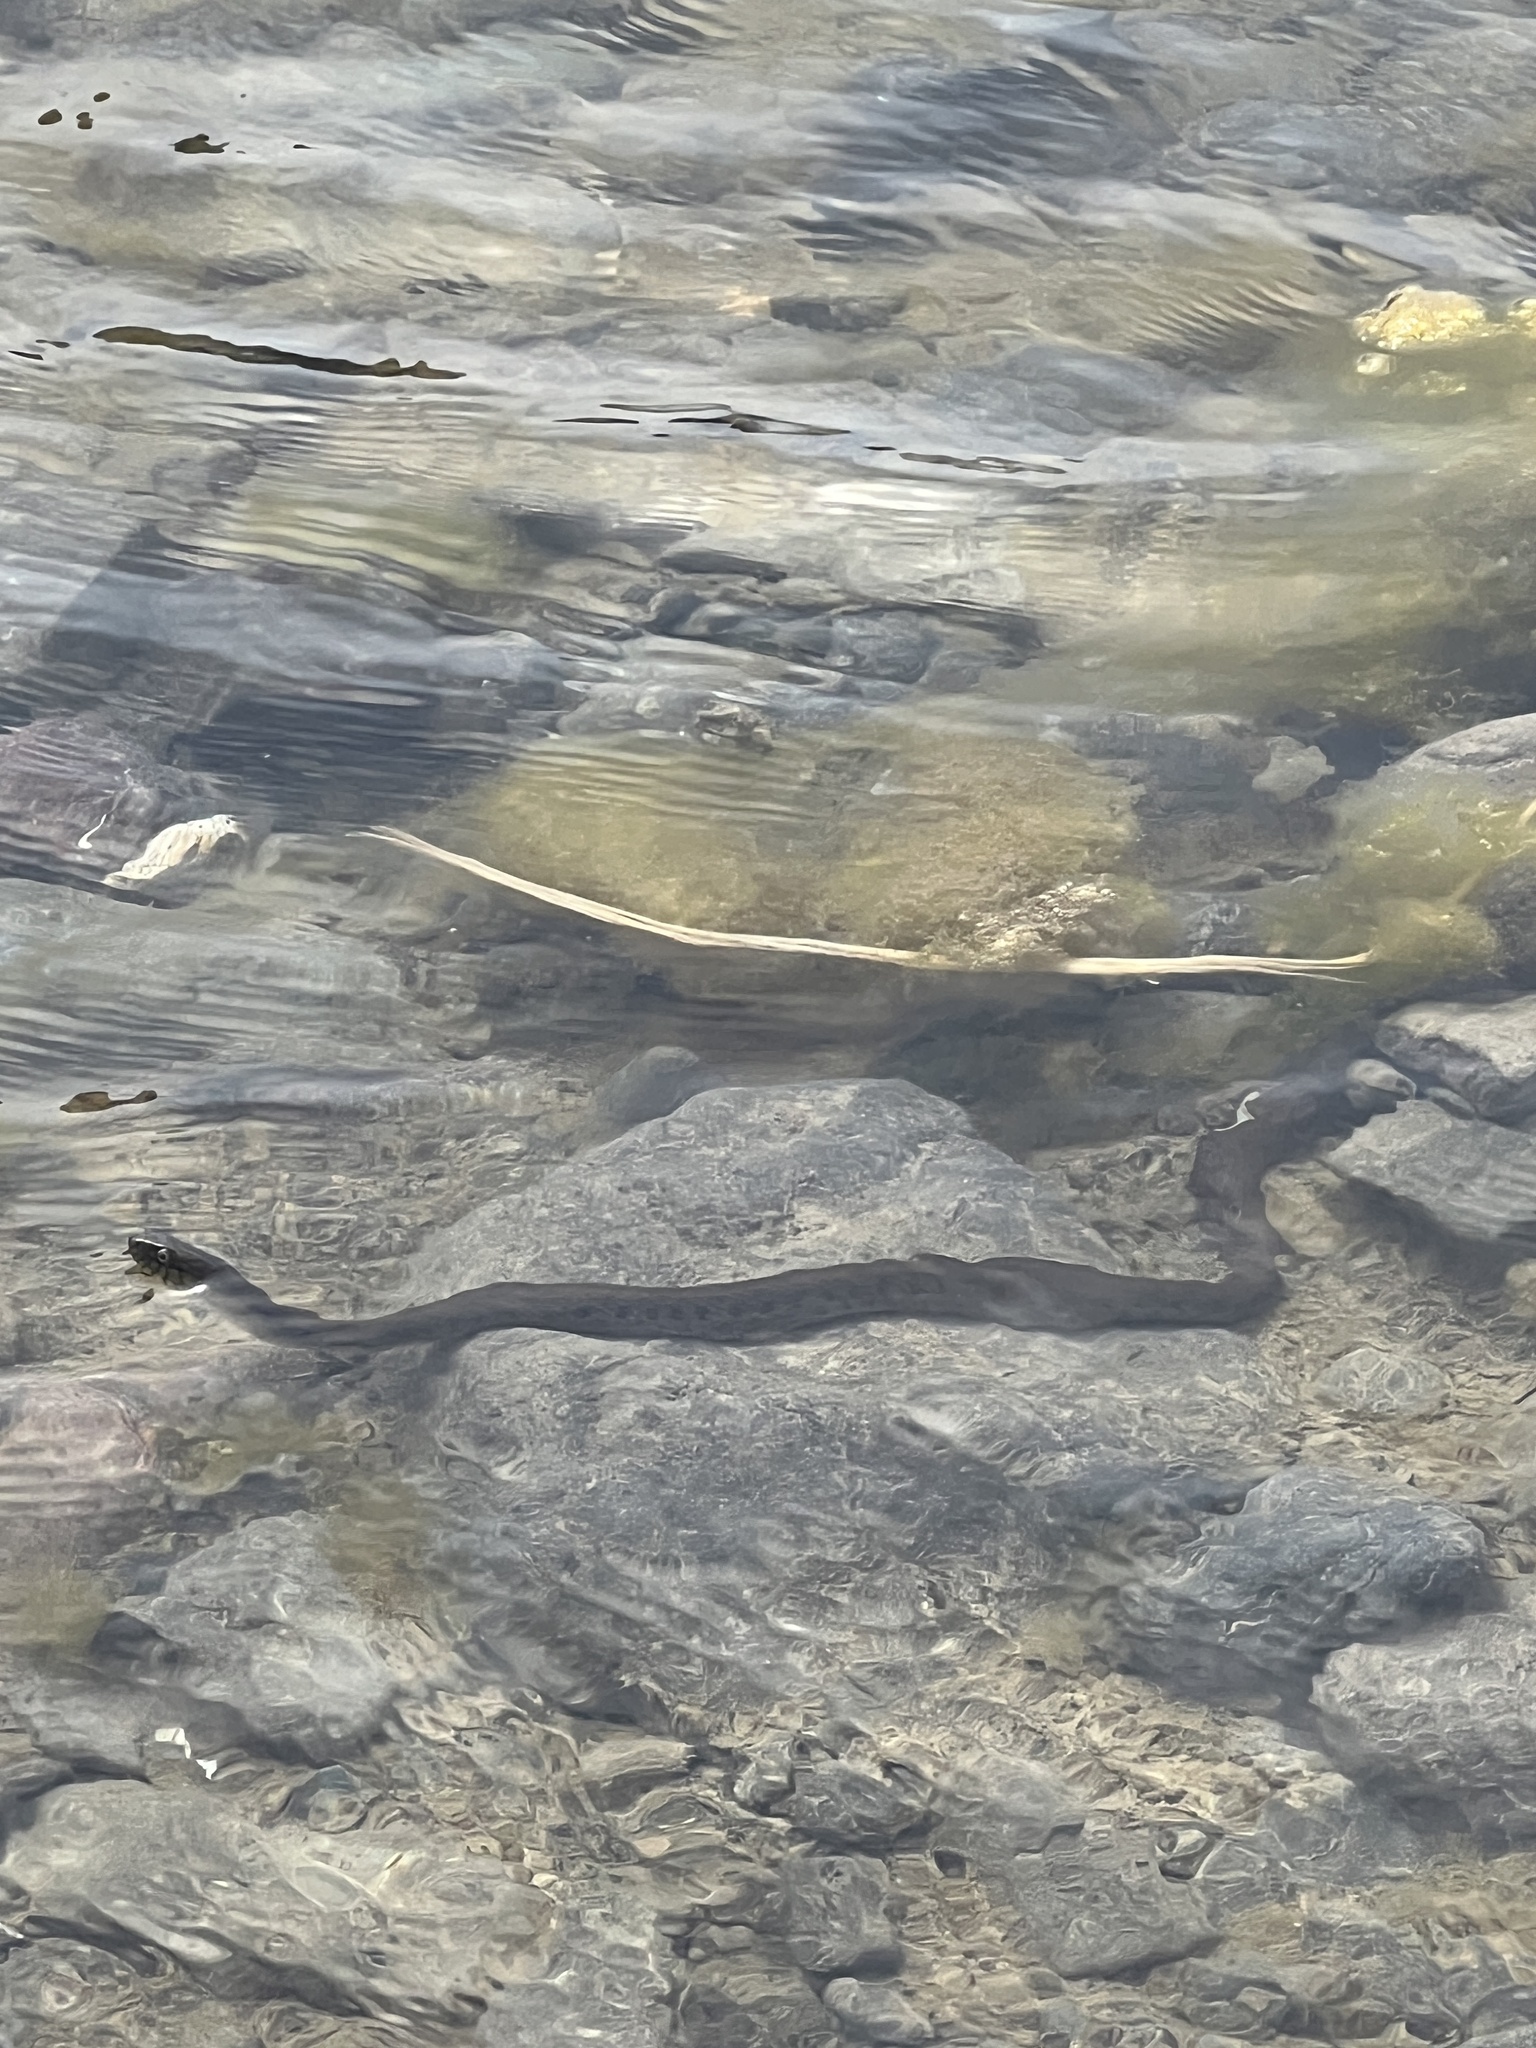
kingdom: Animalia
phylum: Chordata
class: Squamata
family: Colubridae
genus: Thamnophis
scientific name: Thamnophis hammondii
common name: Two-striped garter snake
